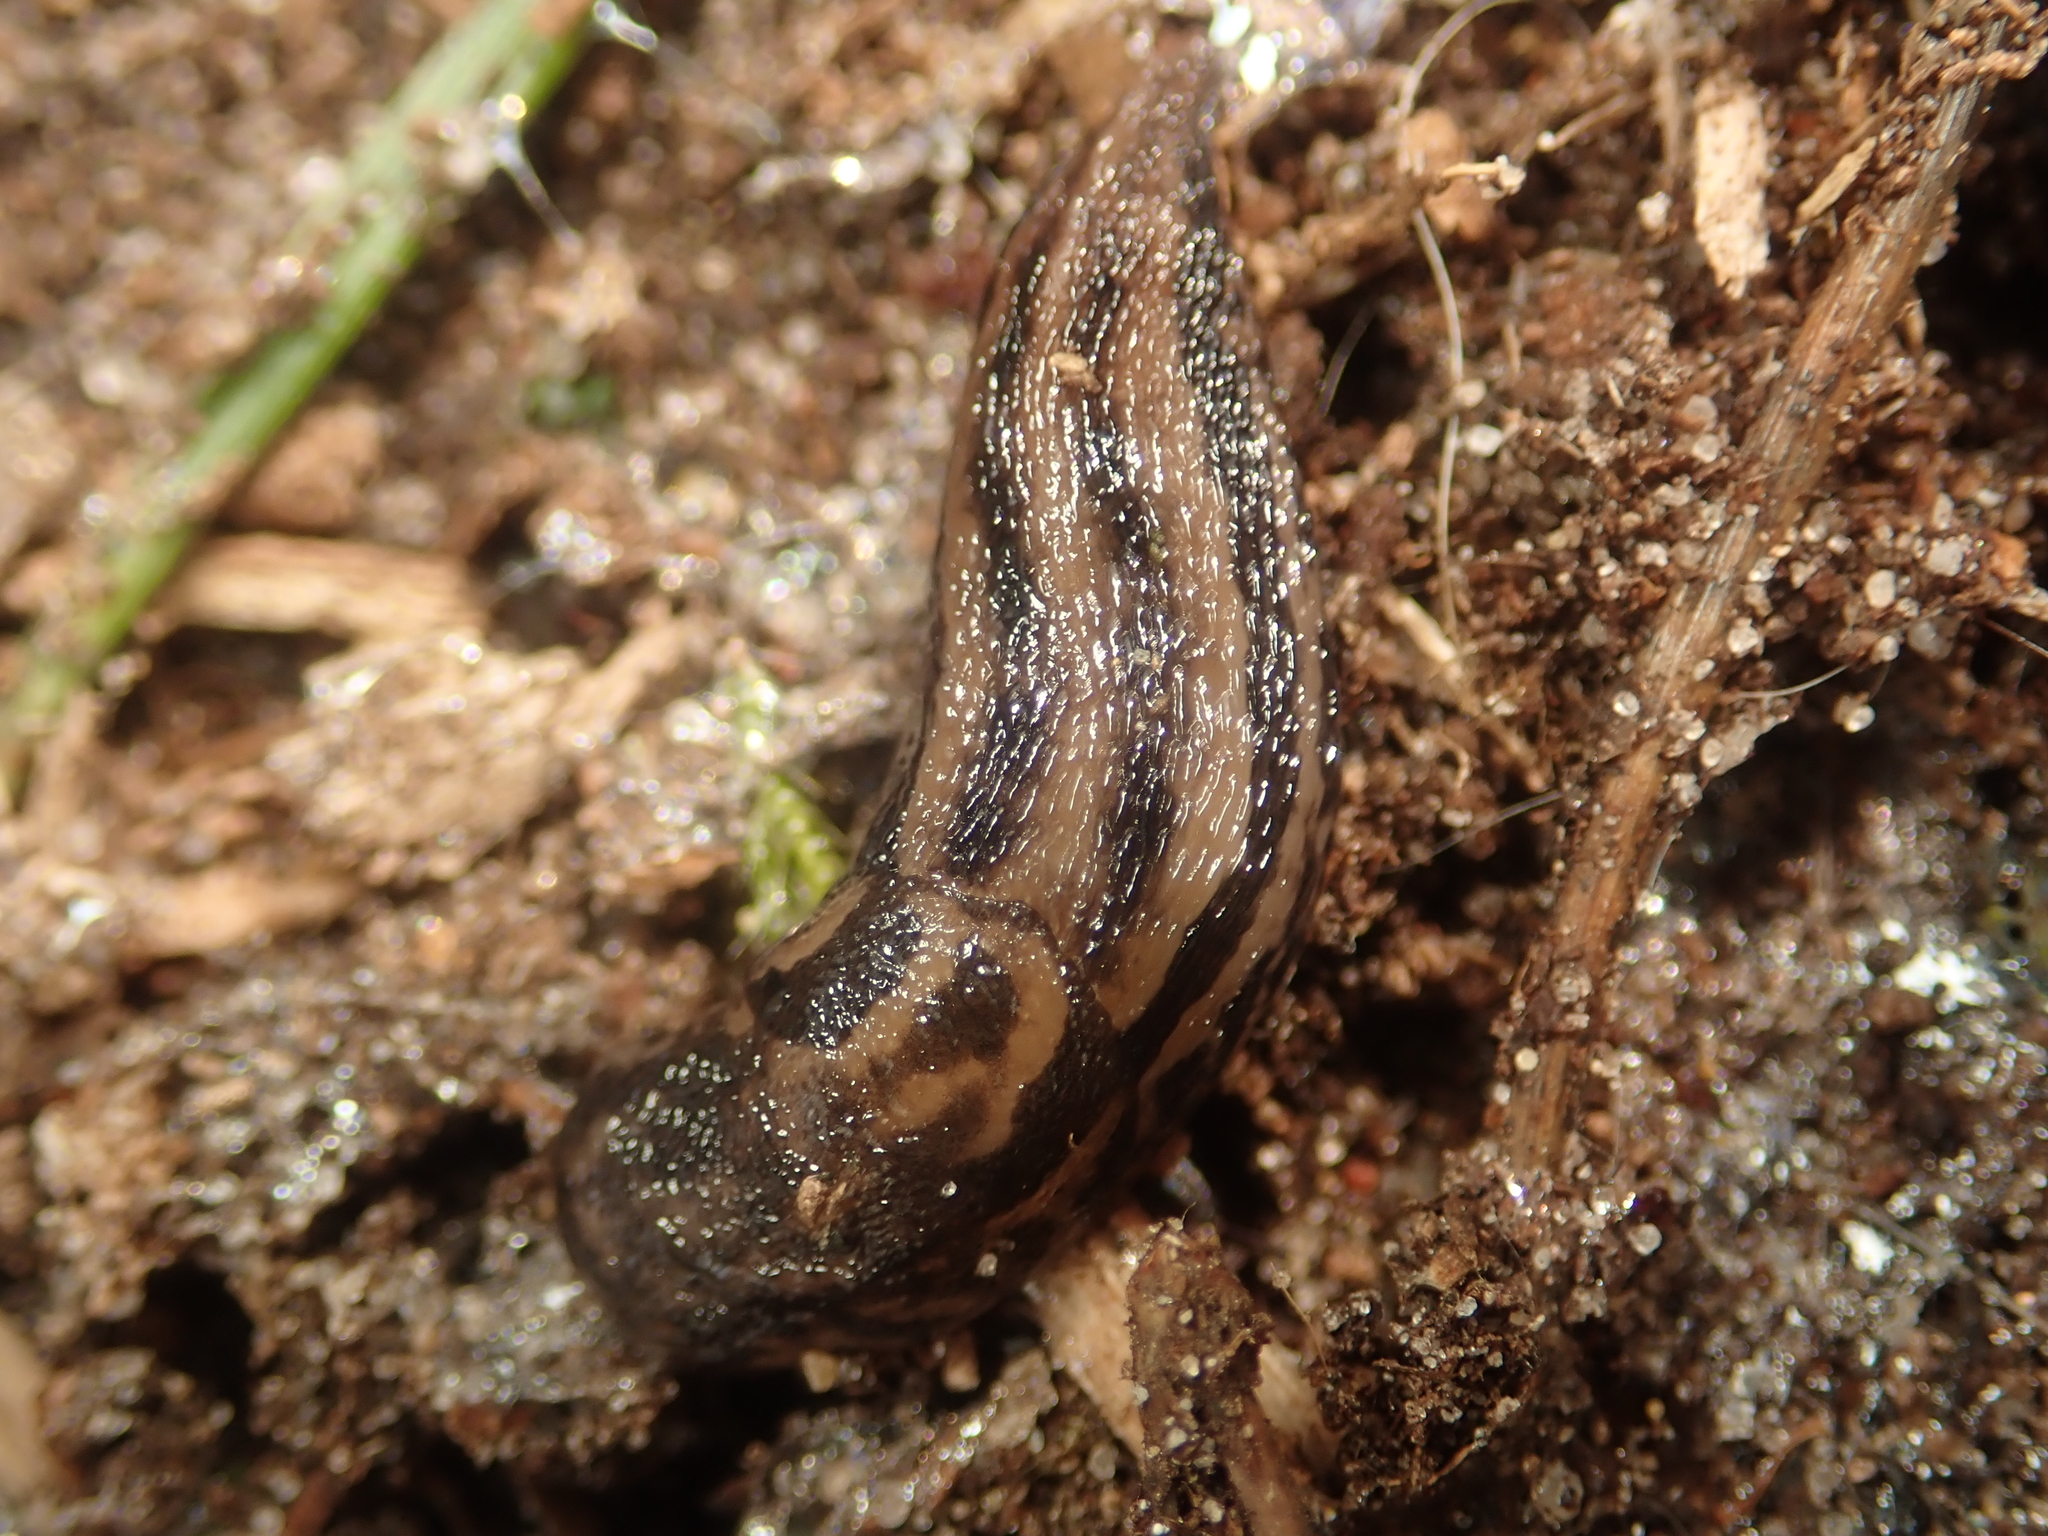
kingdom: Animalia
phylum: Mollusca
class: Gastropoda
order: Stylommatophora
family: Limacidae
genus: Limax
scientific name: Limax maximus
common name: Great grey slug
